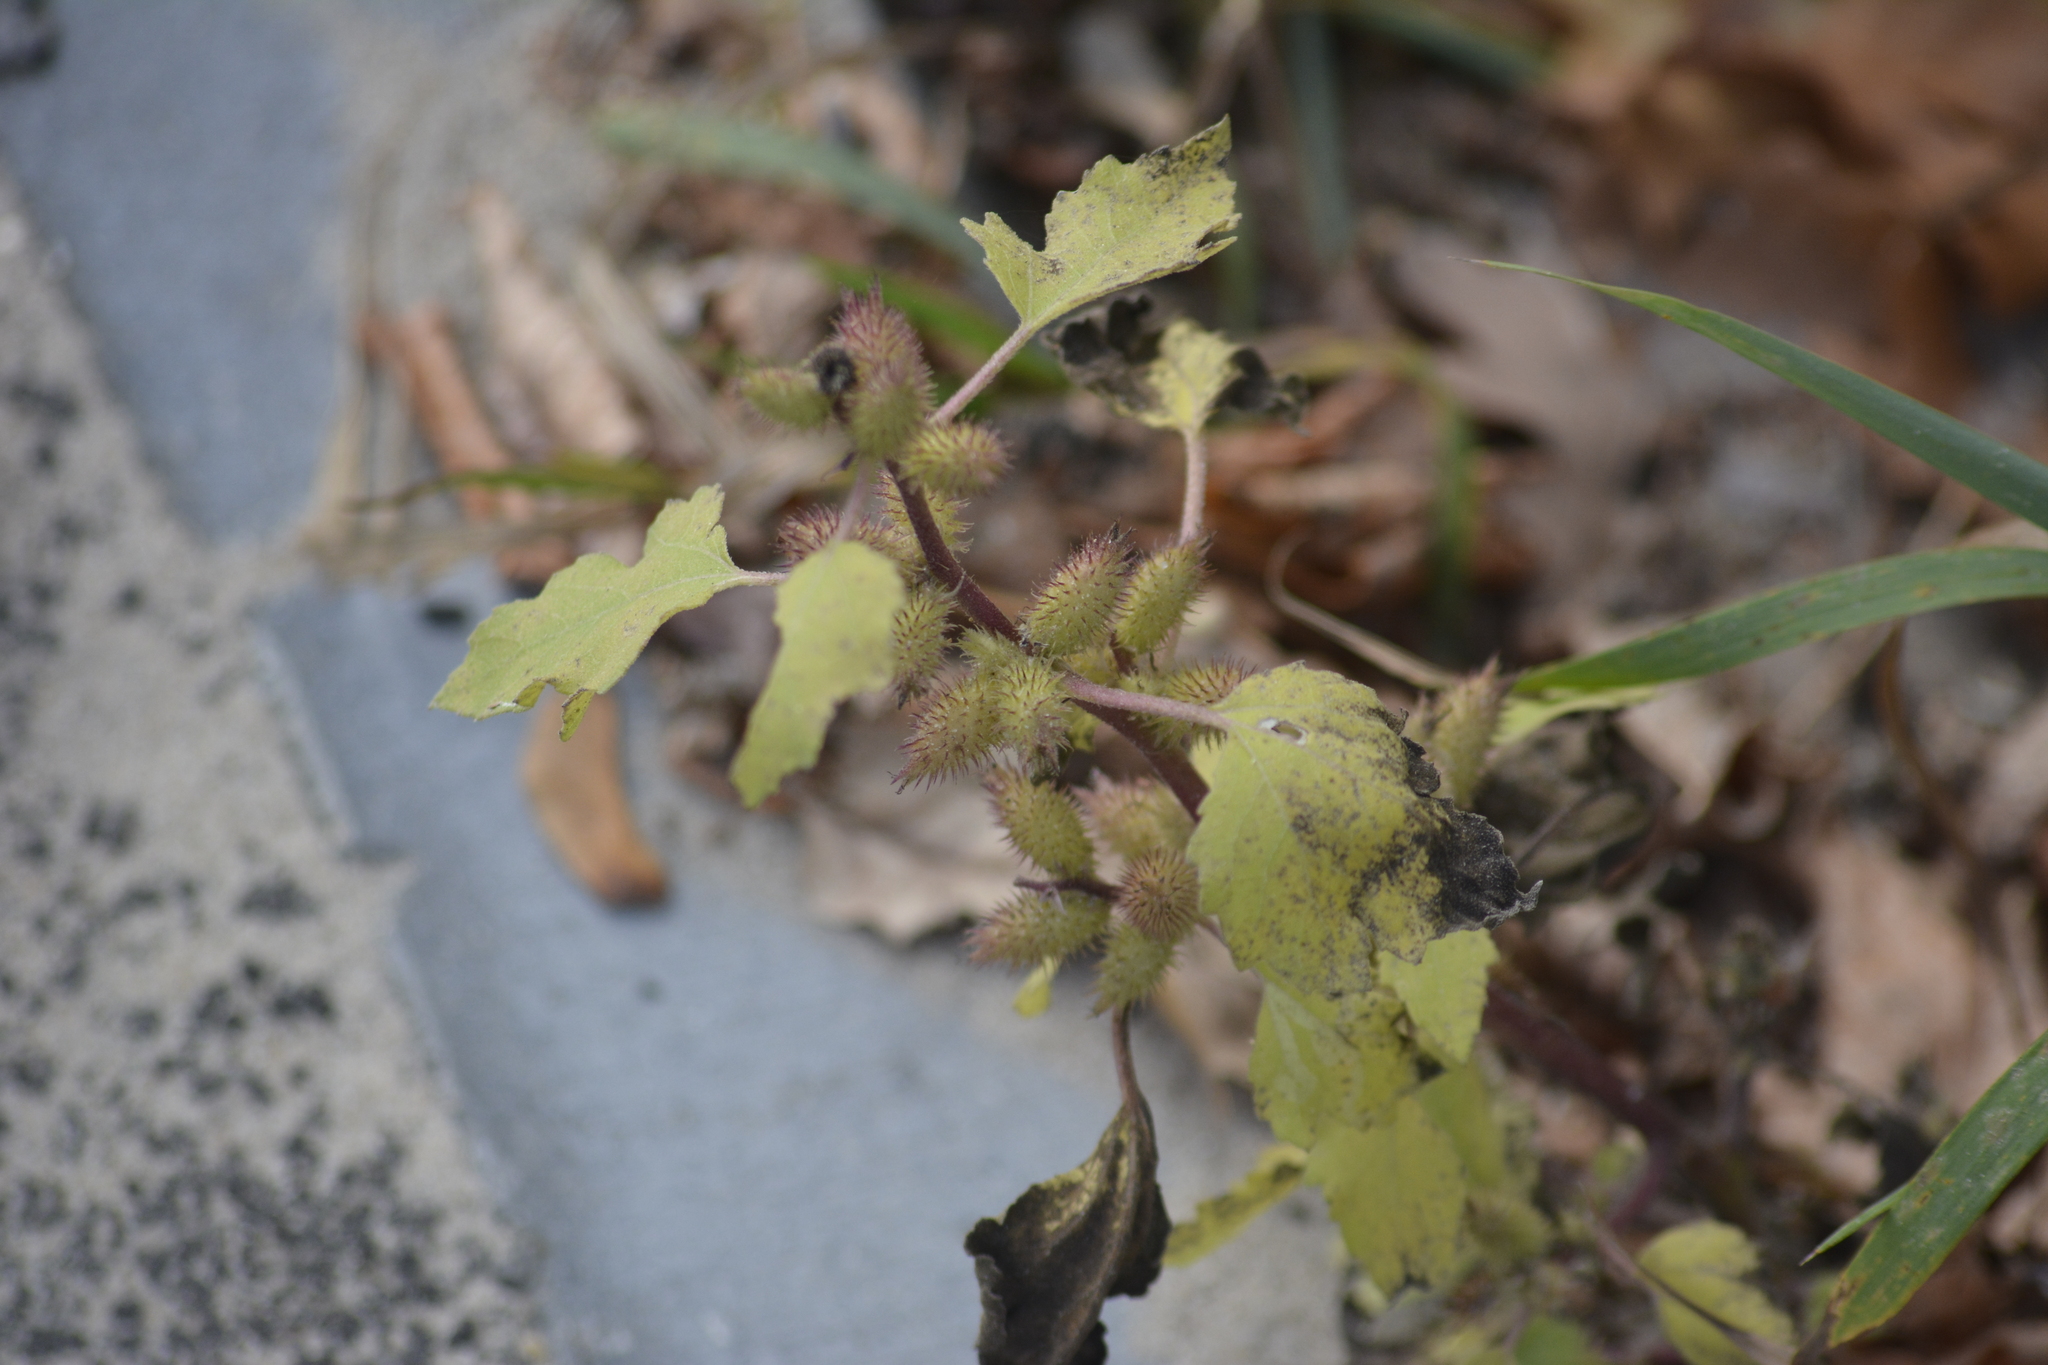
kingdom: Plantae
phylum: Tracheophyta
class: Magnoliopsida
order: Asterales
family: Asteraceae
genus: Xanthium
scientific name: Xanthium orientale
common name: Californian burr
